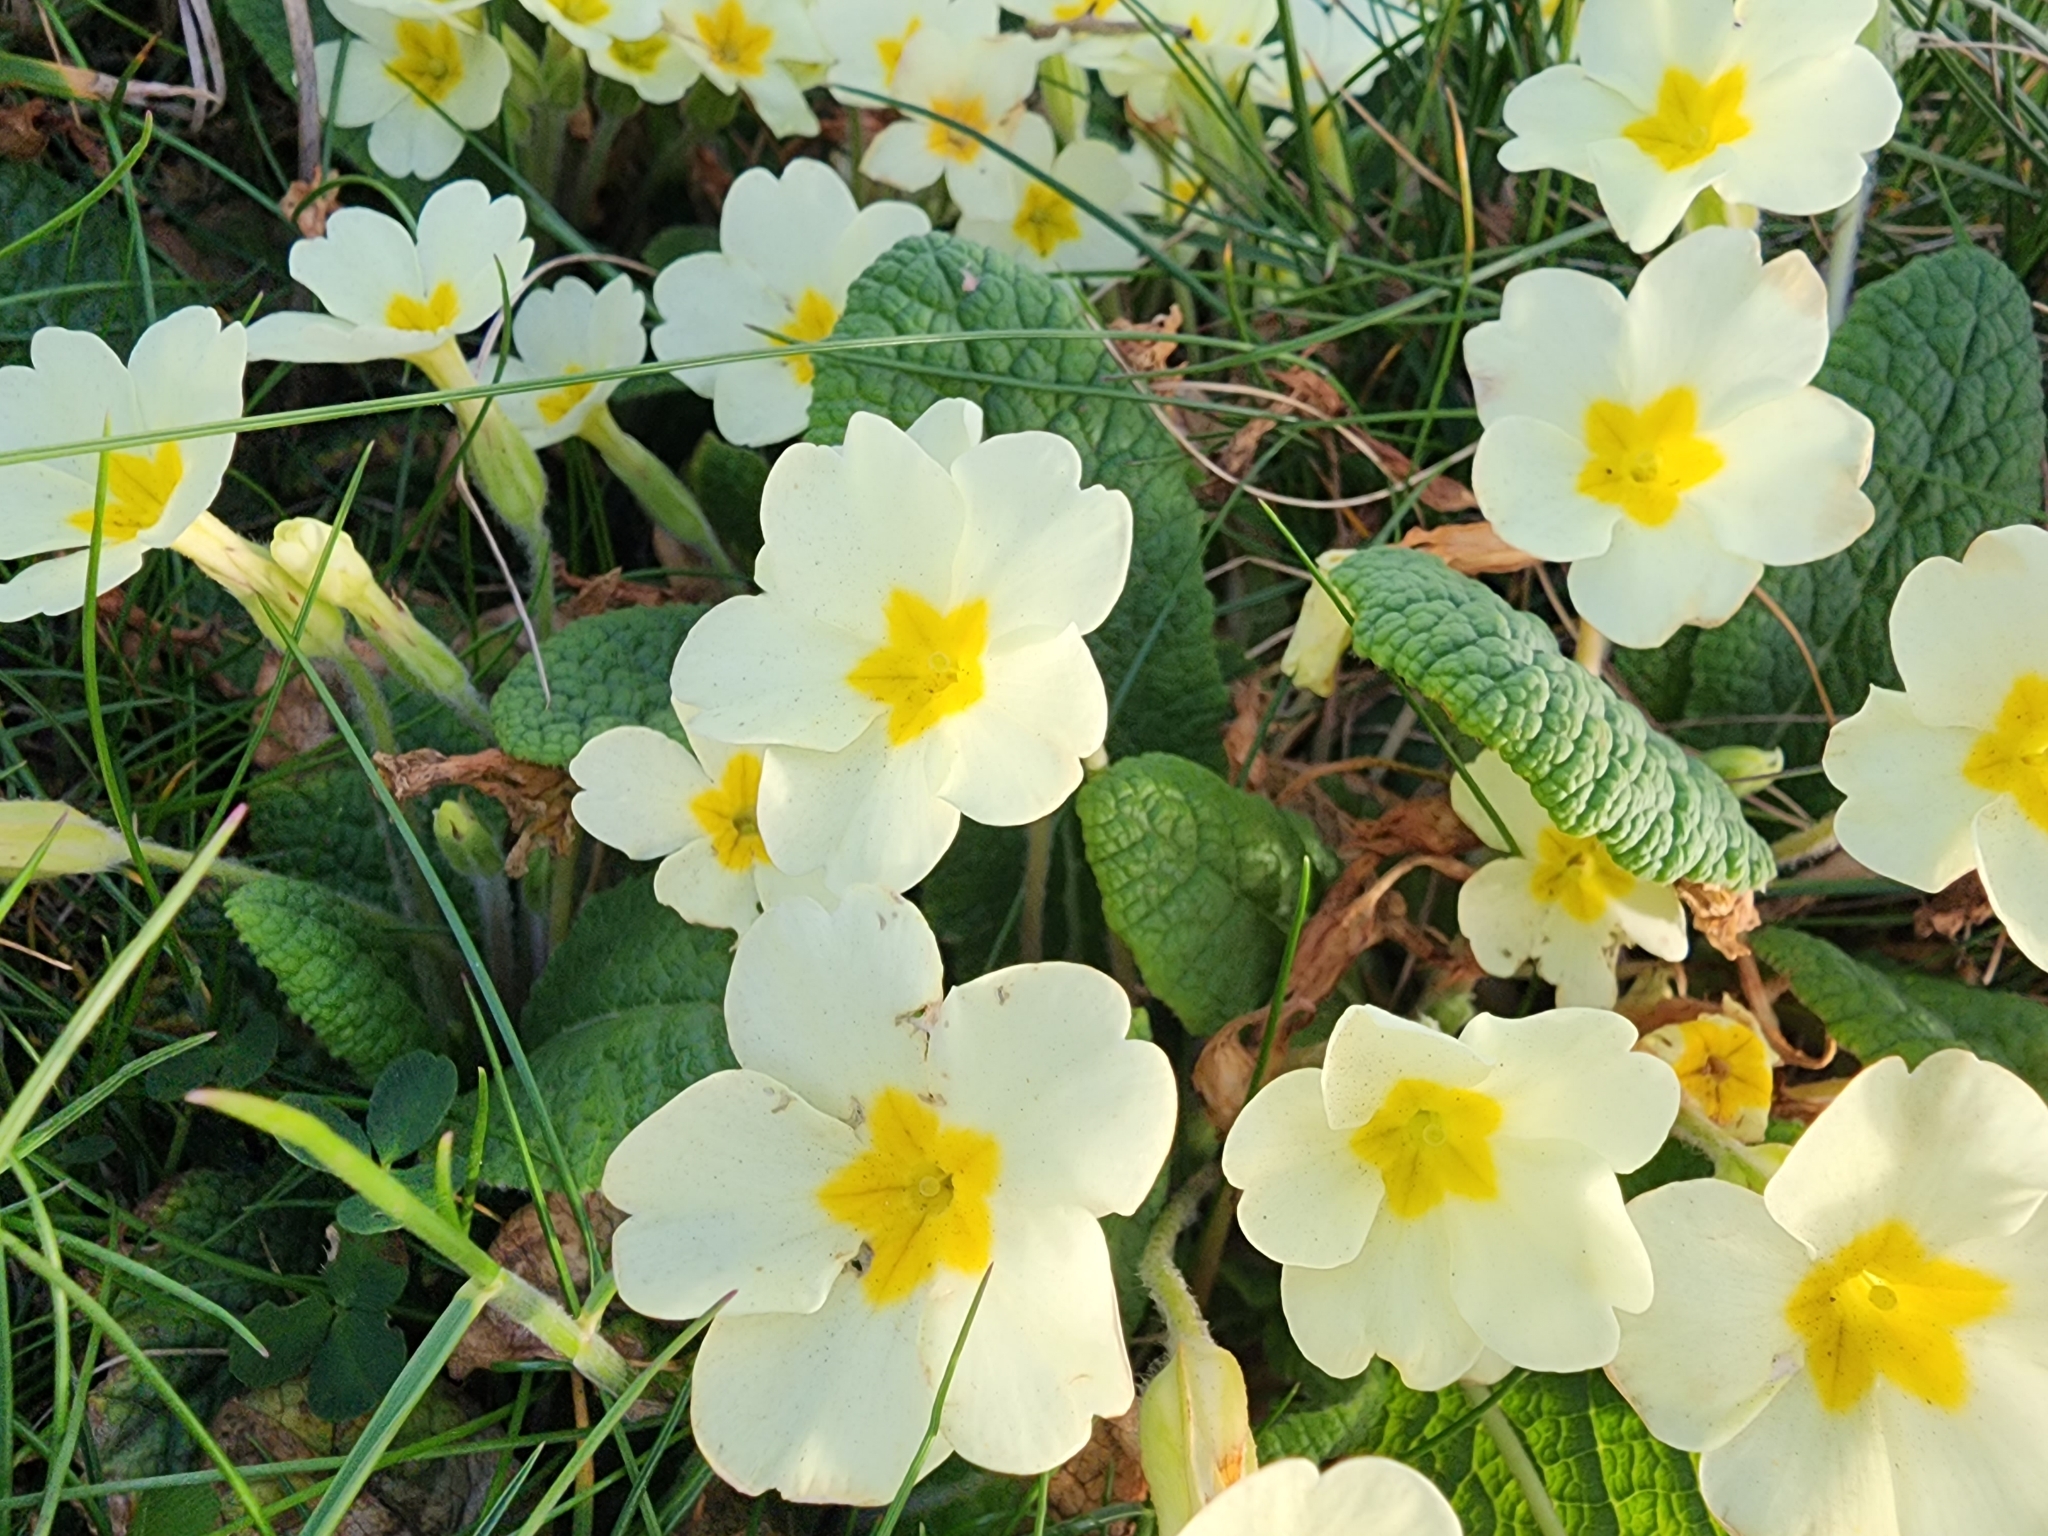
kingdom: Plantae
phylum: Tracheophyta
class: Magnoliopsida
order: Ericales
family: Primulaceae
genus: Primula
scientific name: Primula vulgaris
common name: Primrose
